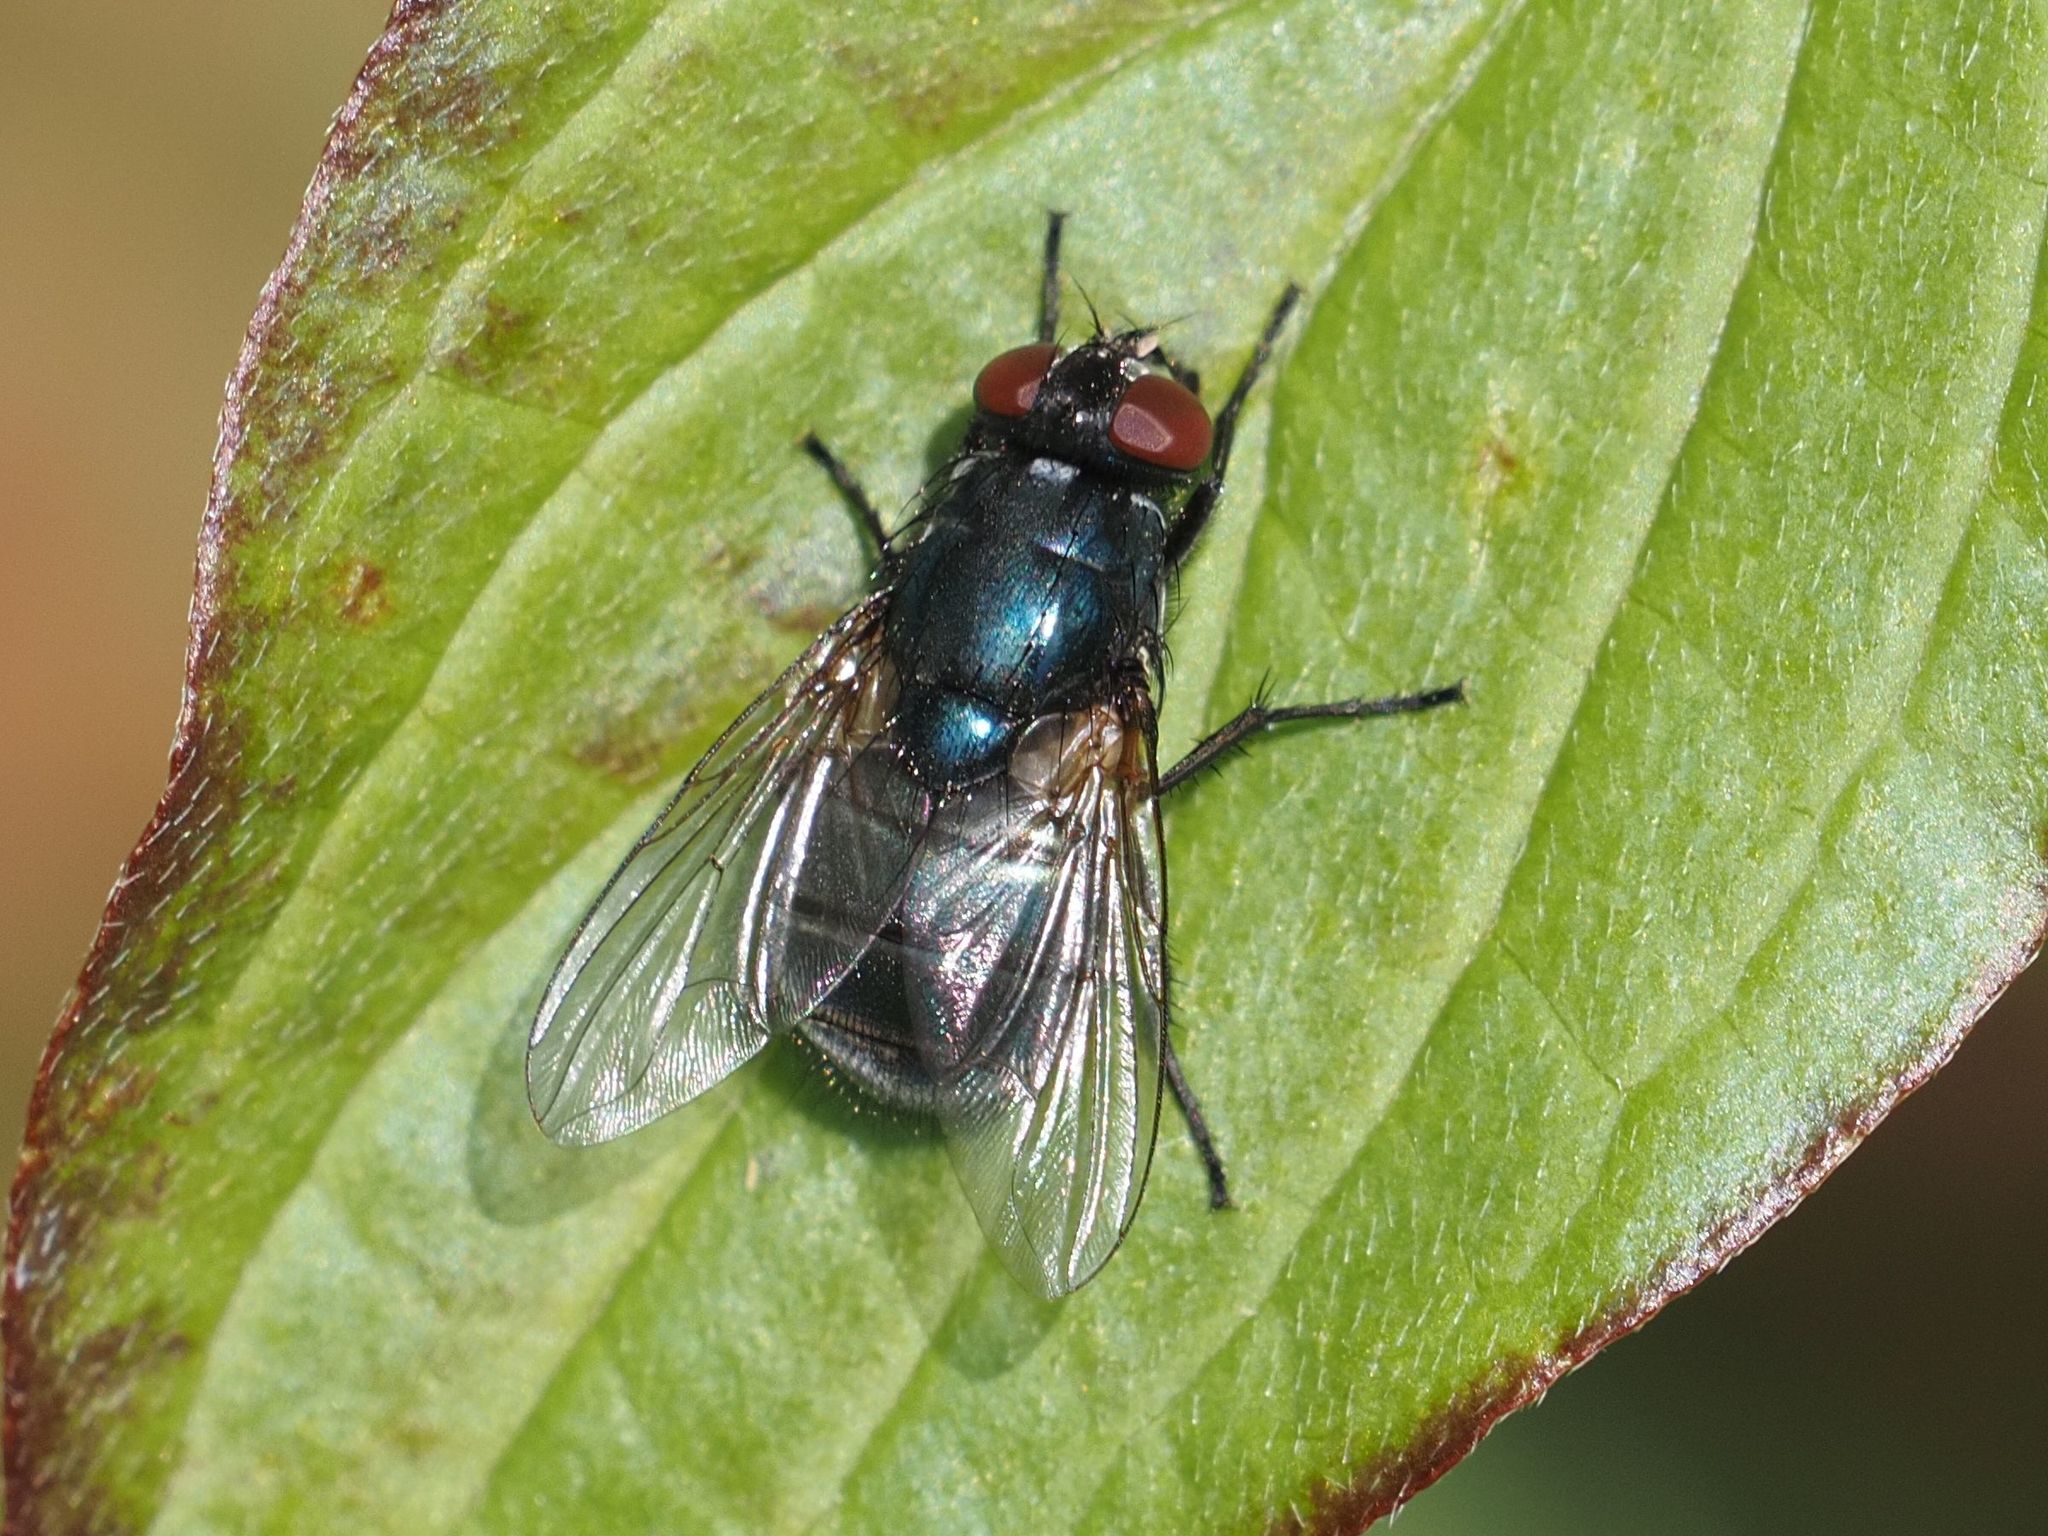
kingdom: Animalia
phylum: Arthropoda
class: Insecta
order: Diptera
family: Muscidae
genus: Eudasyphora
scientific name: Eudasyphora cyanicolor
